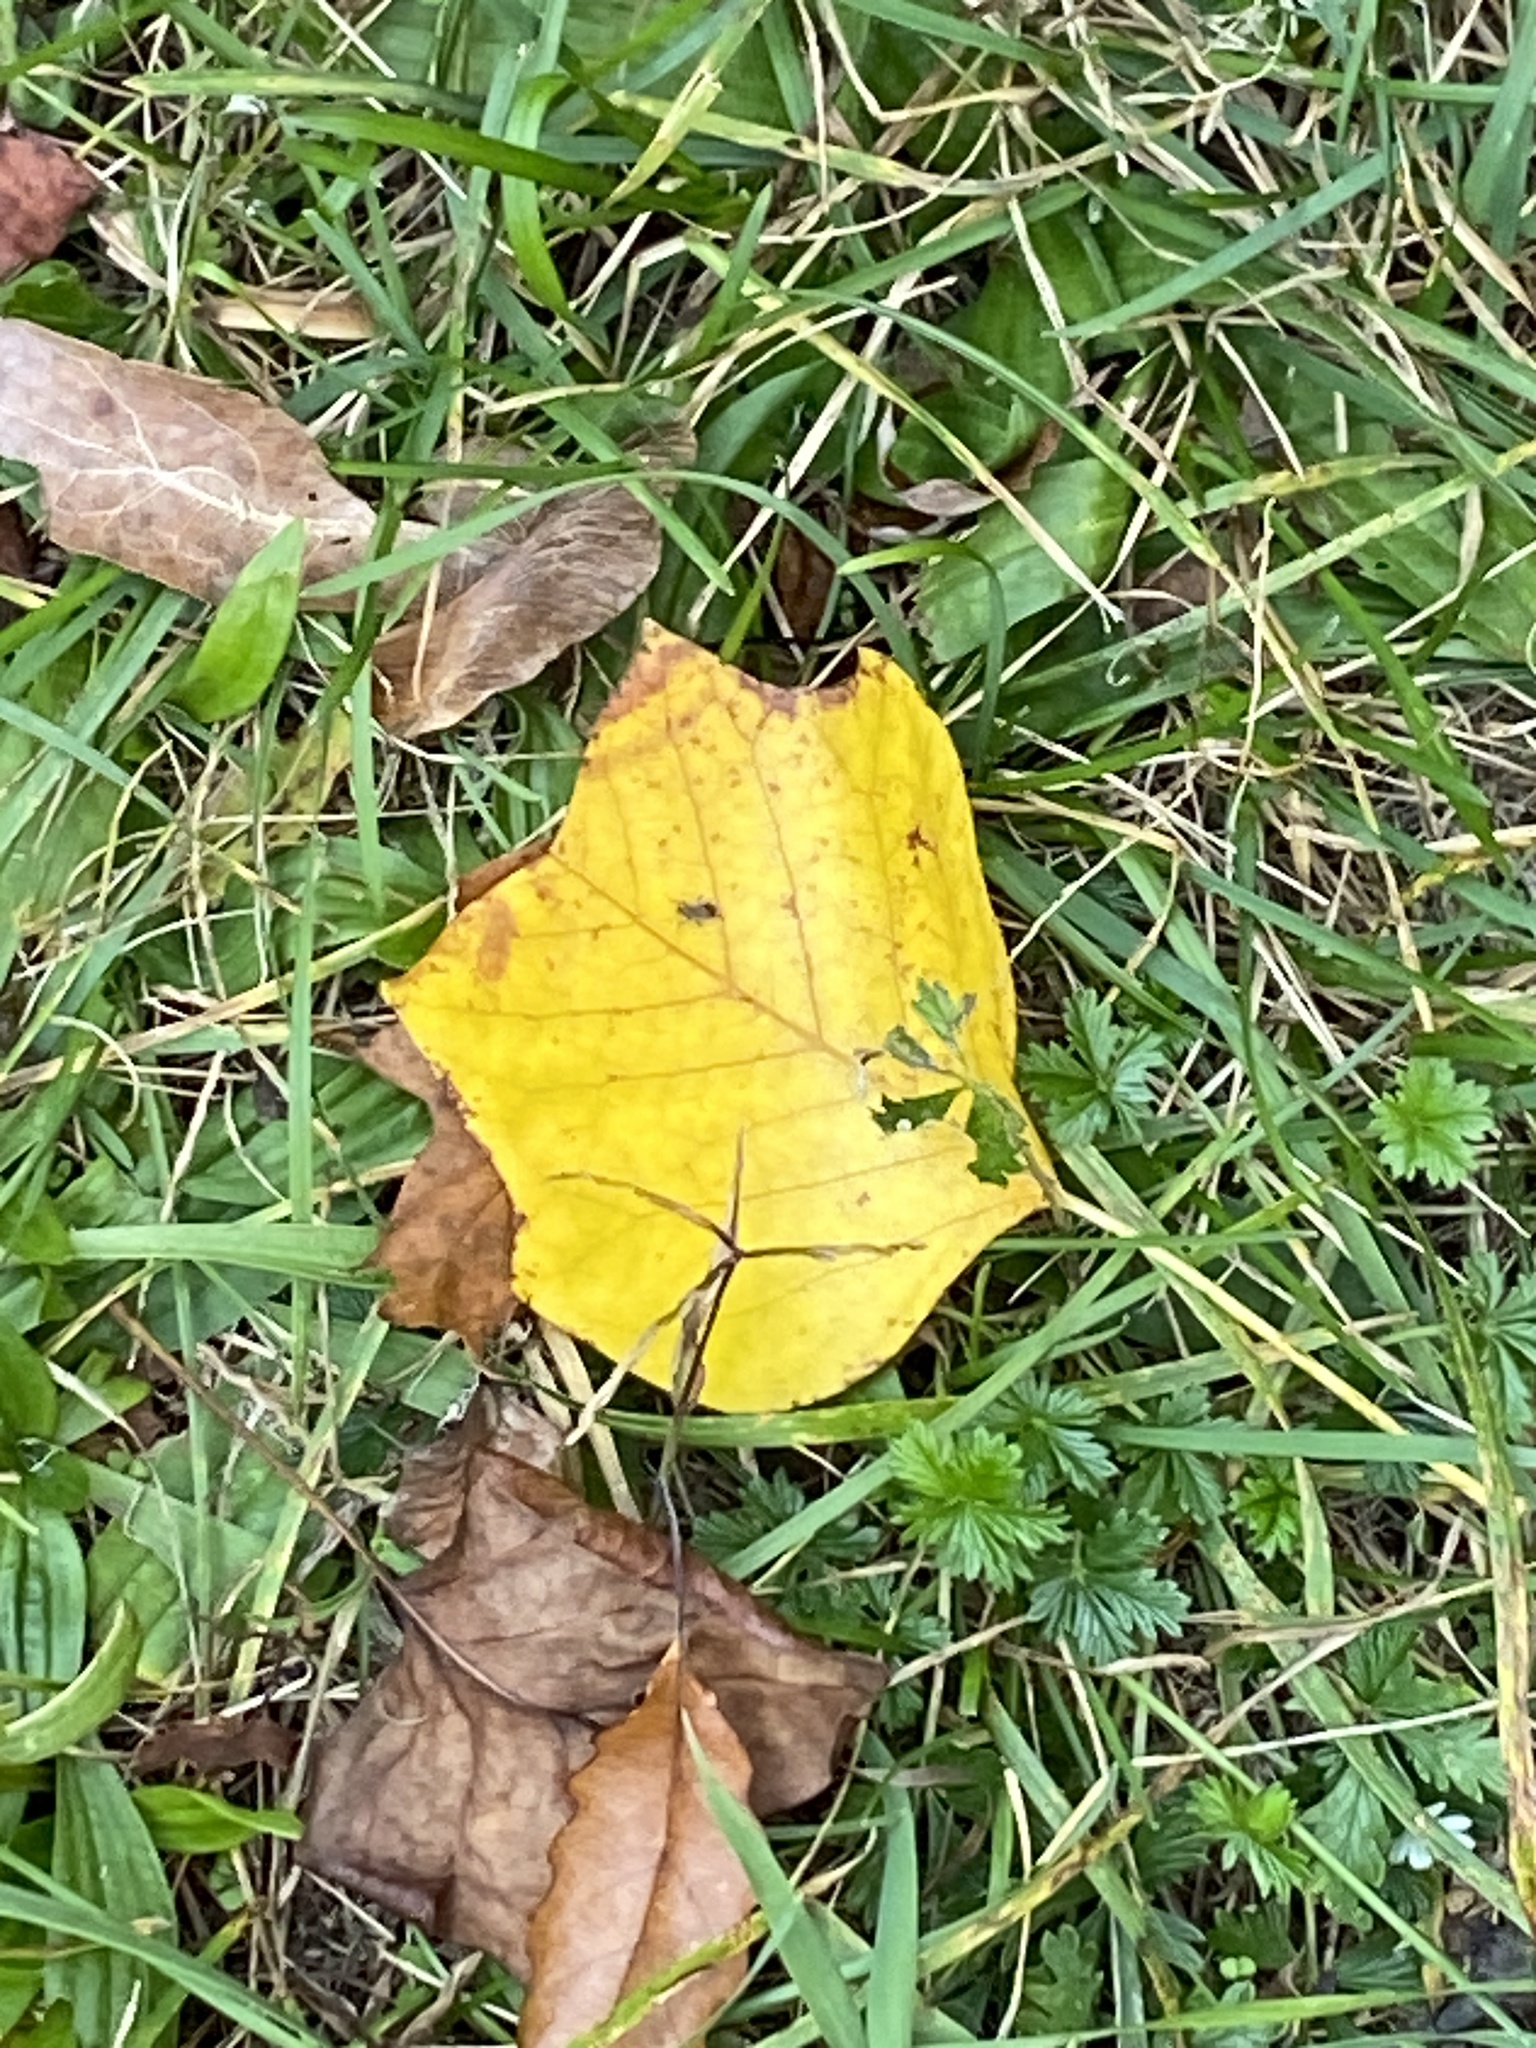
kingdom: Plantae
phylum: Tracheophyta
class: Magnoliopsida
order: Magnoliales
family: Magnoliaceae
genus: Liriodendron
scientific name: Liriodendron tulipifera
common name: Tulip tree
